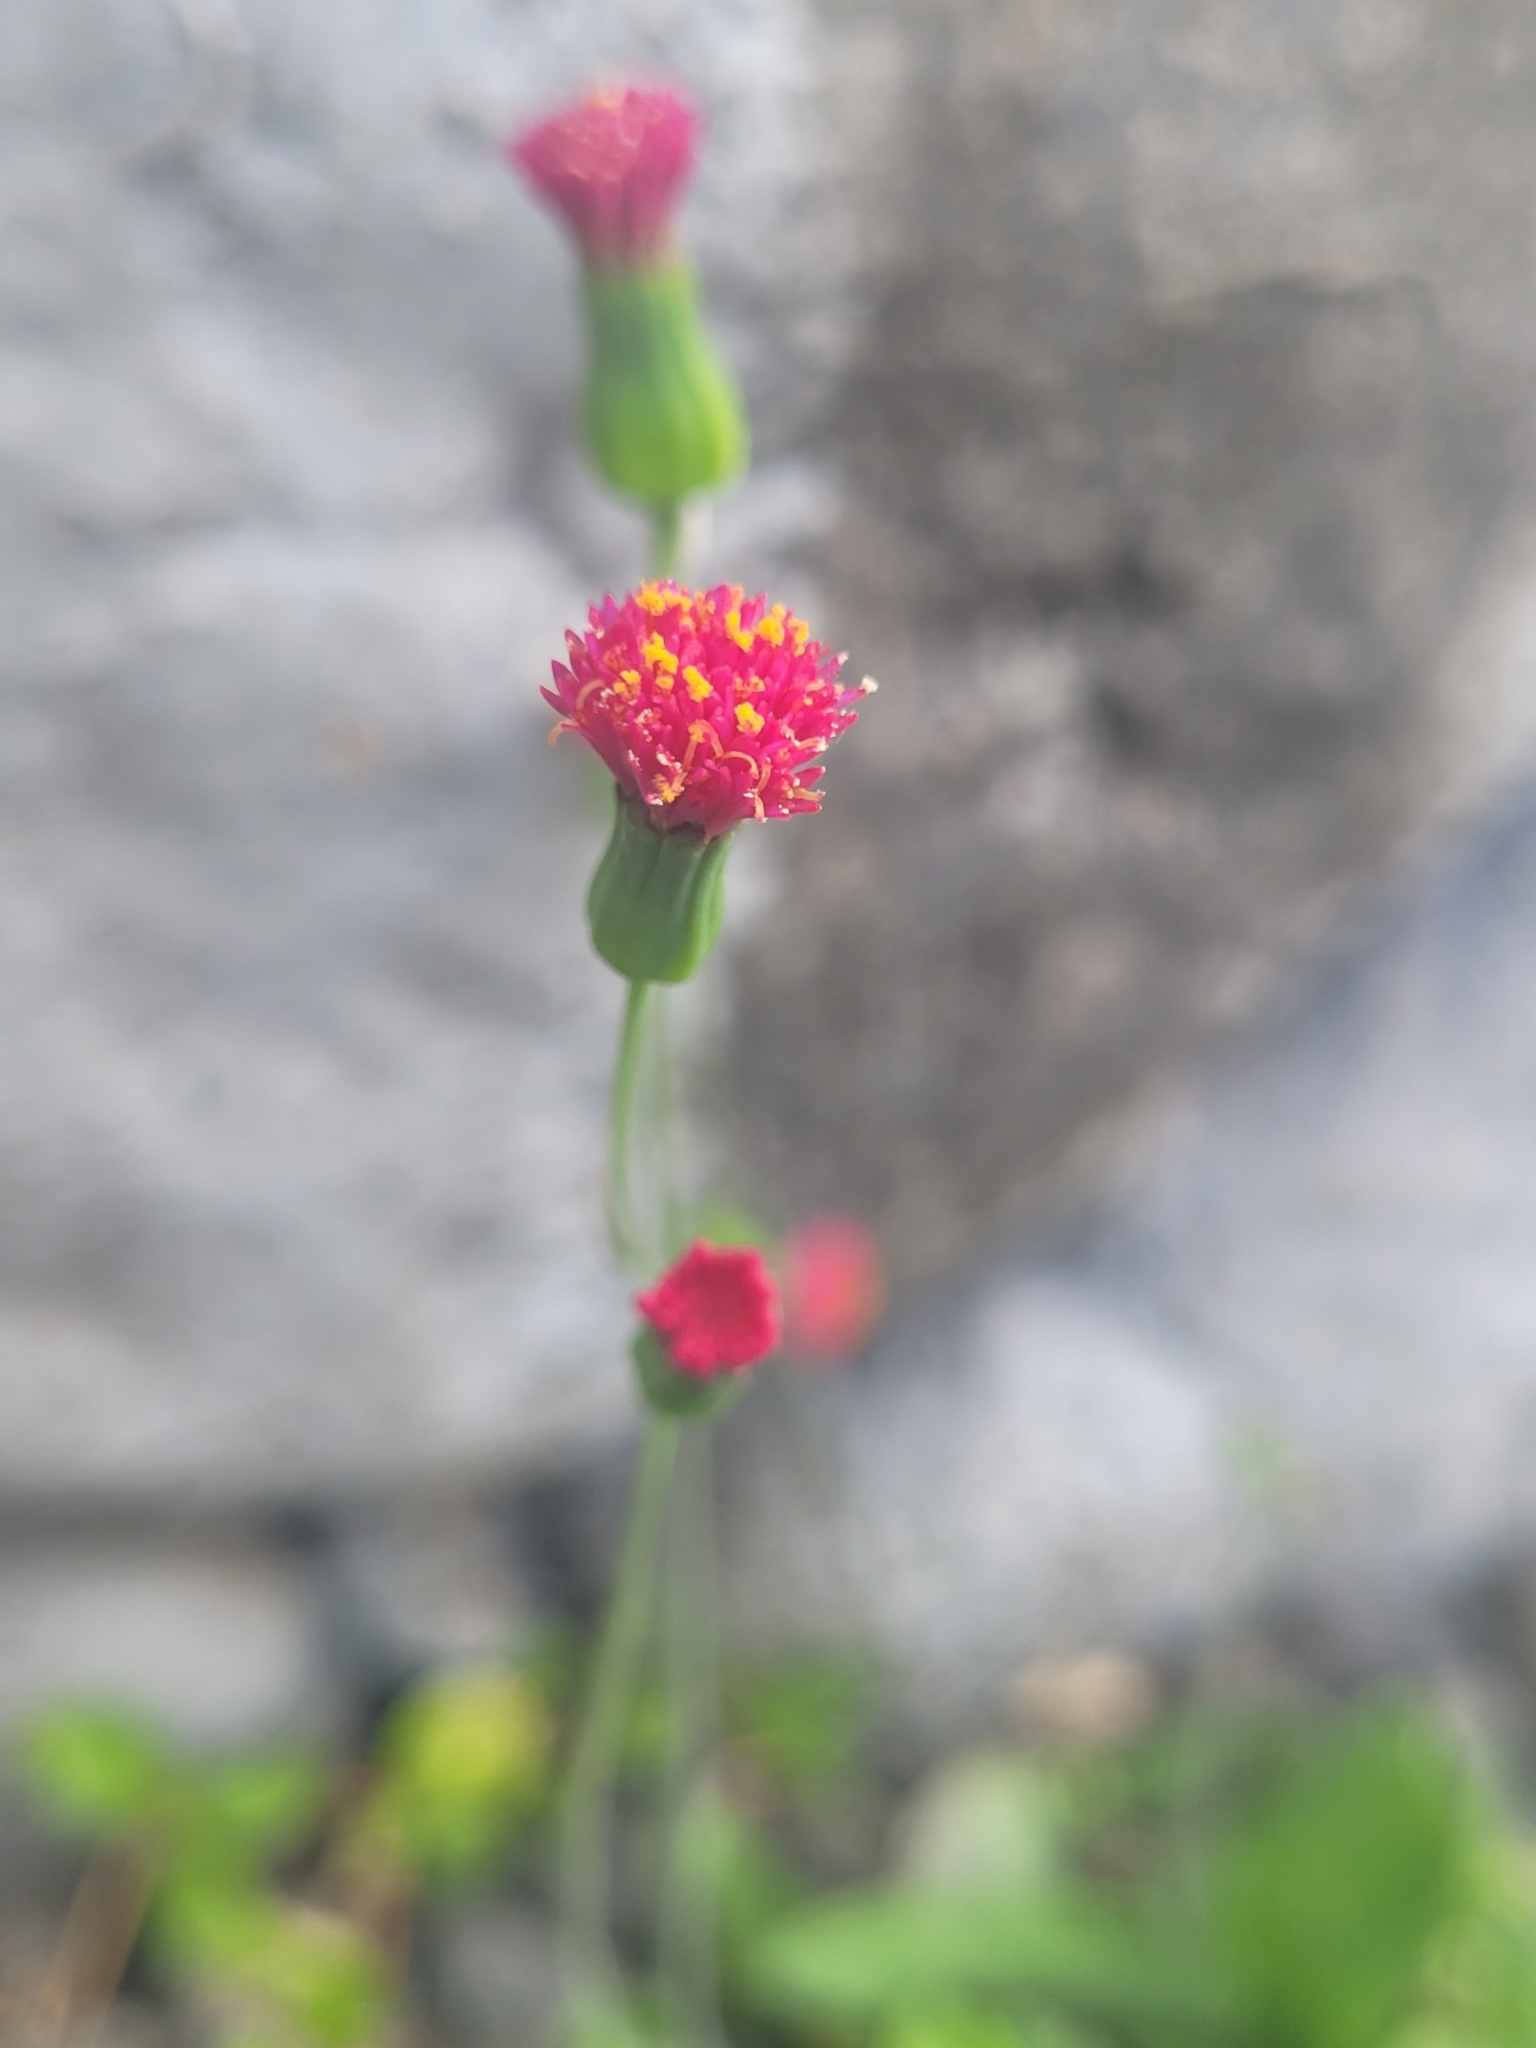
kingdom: Plantae
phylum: Tracheophyta
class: Magnoliopsida
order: Asterales
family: Asteraceae
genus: Emilia
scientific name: Emilia fosbergii
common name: Florida tasselflower
